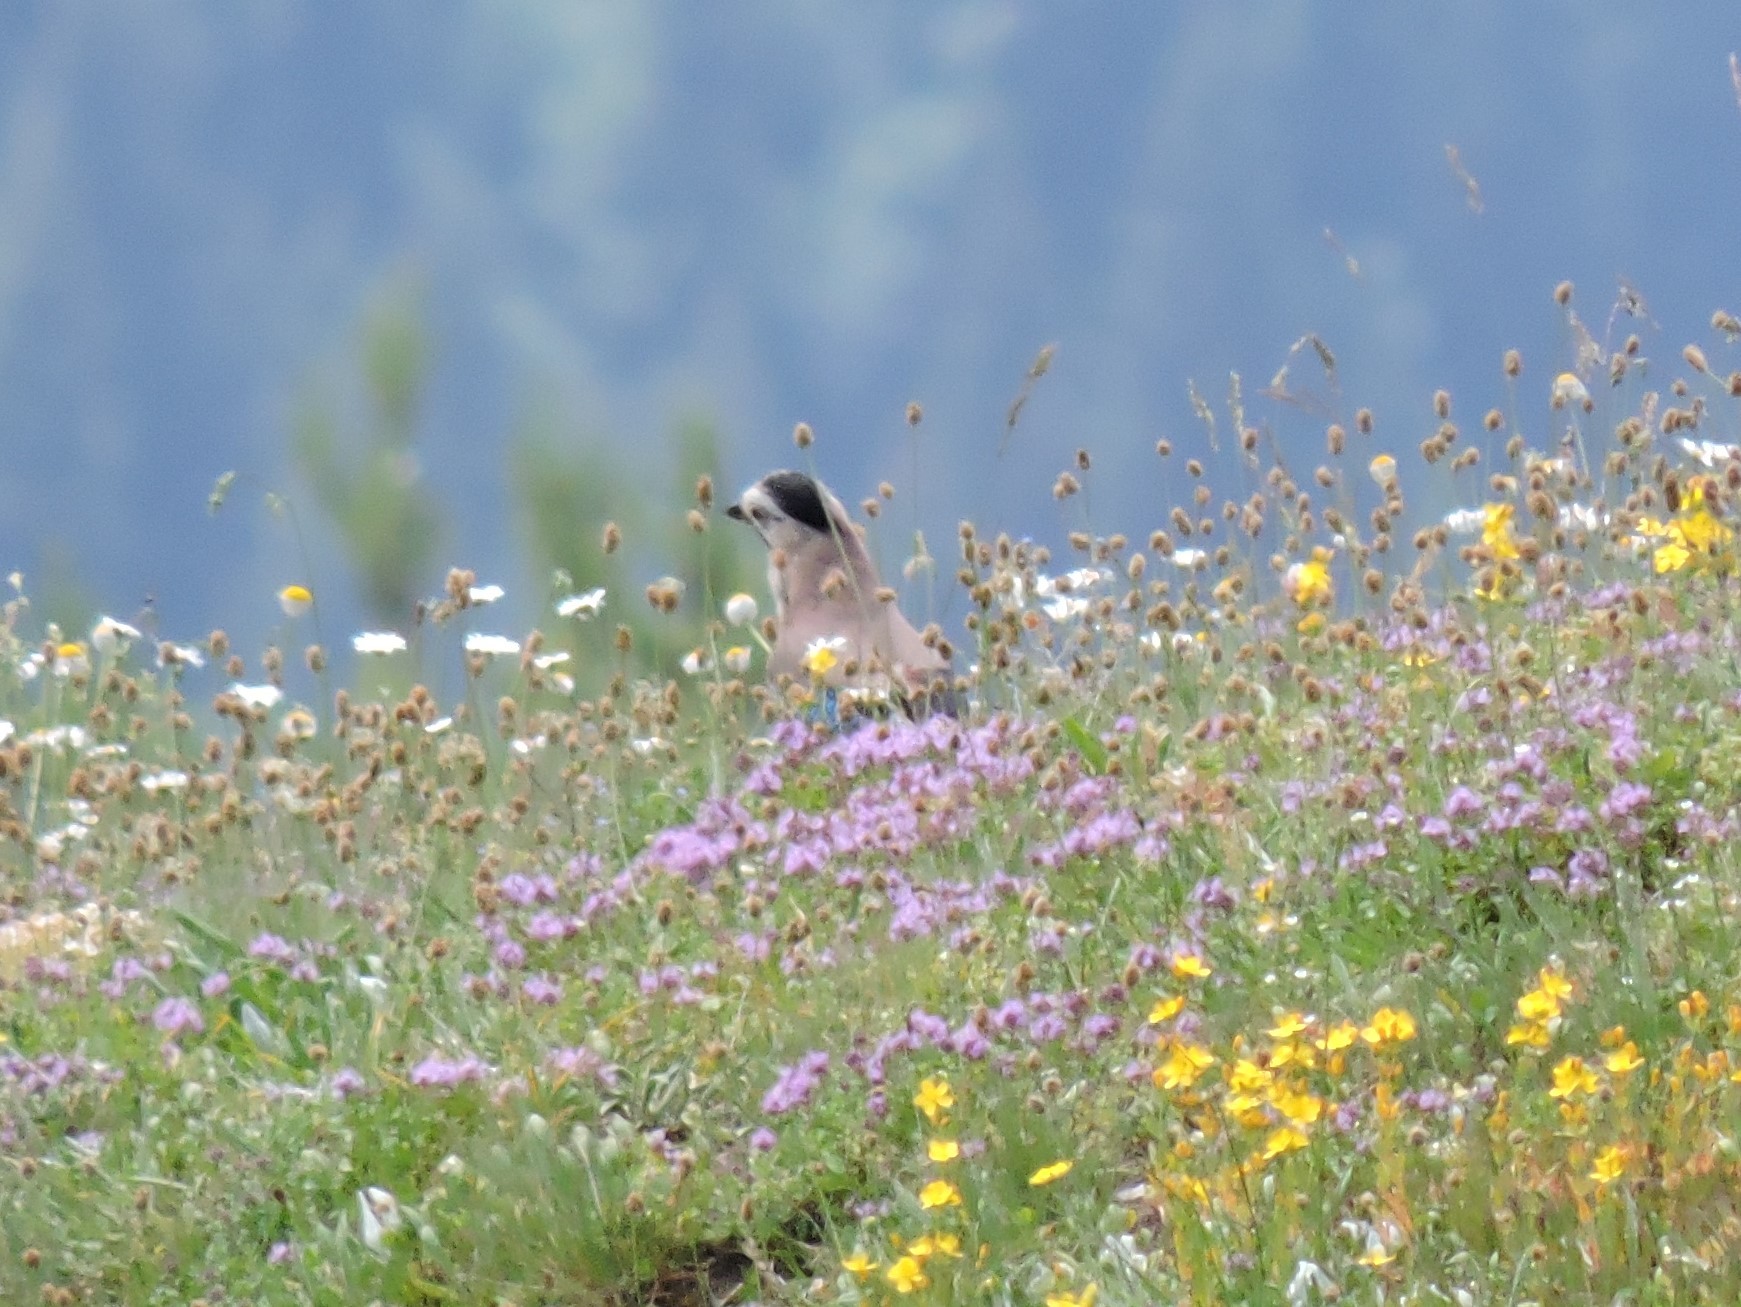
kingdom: Animalia
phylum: Chordata
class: Aves
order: Passeriformes
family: Corvidae
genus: Garrulus
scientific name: Garrulus glandarius
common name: Eurasian jay
